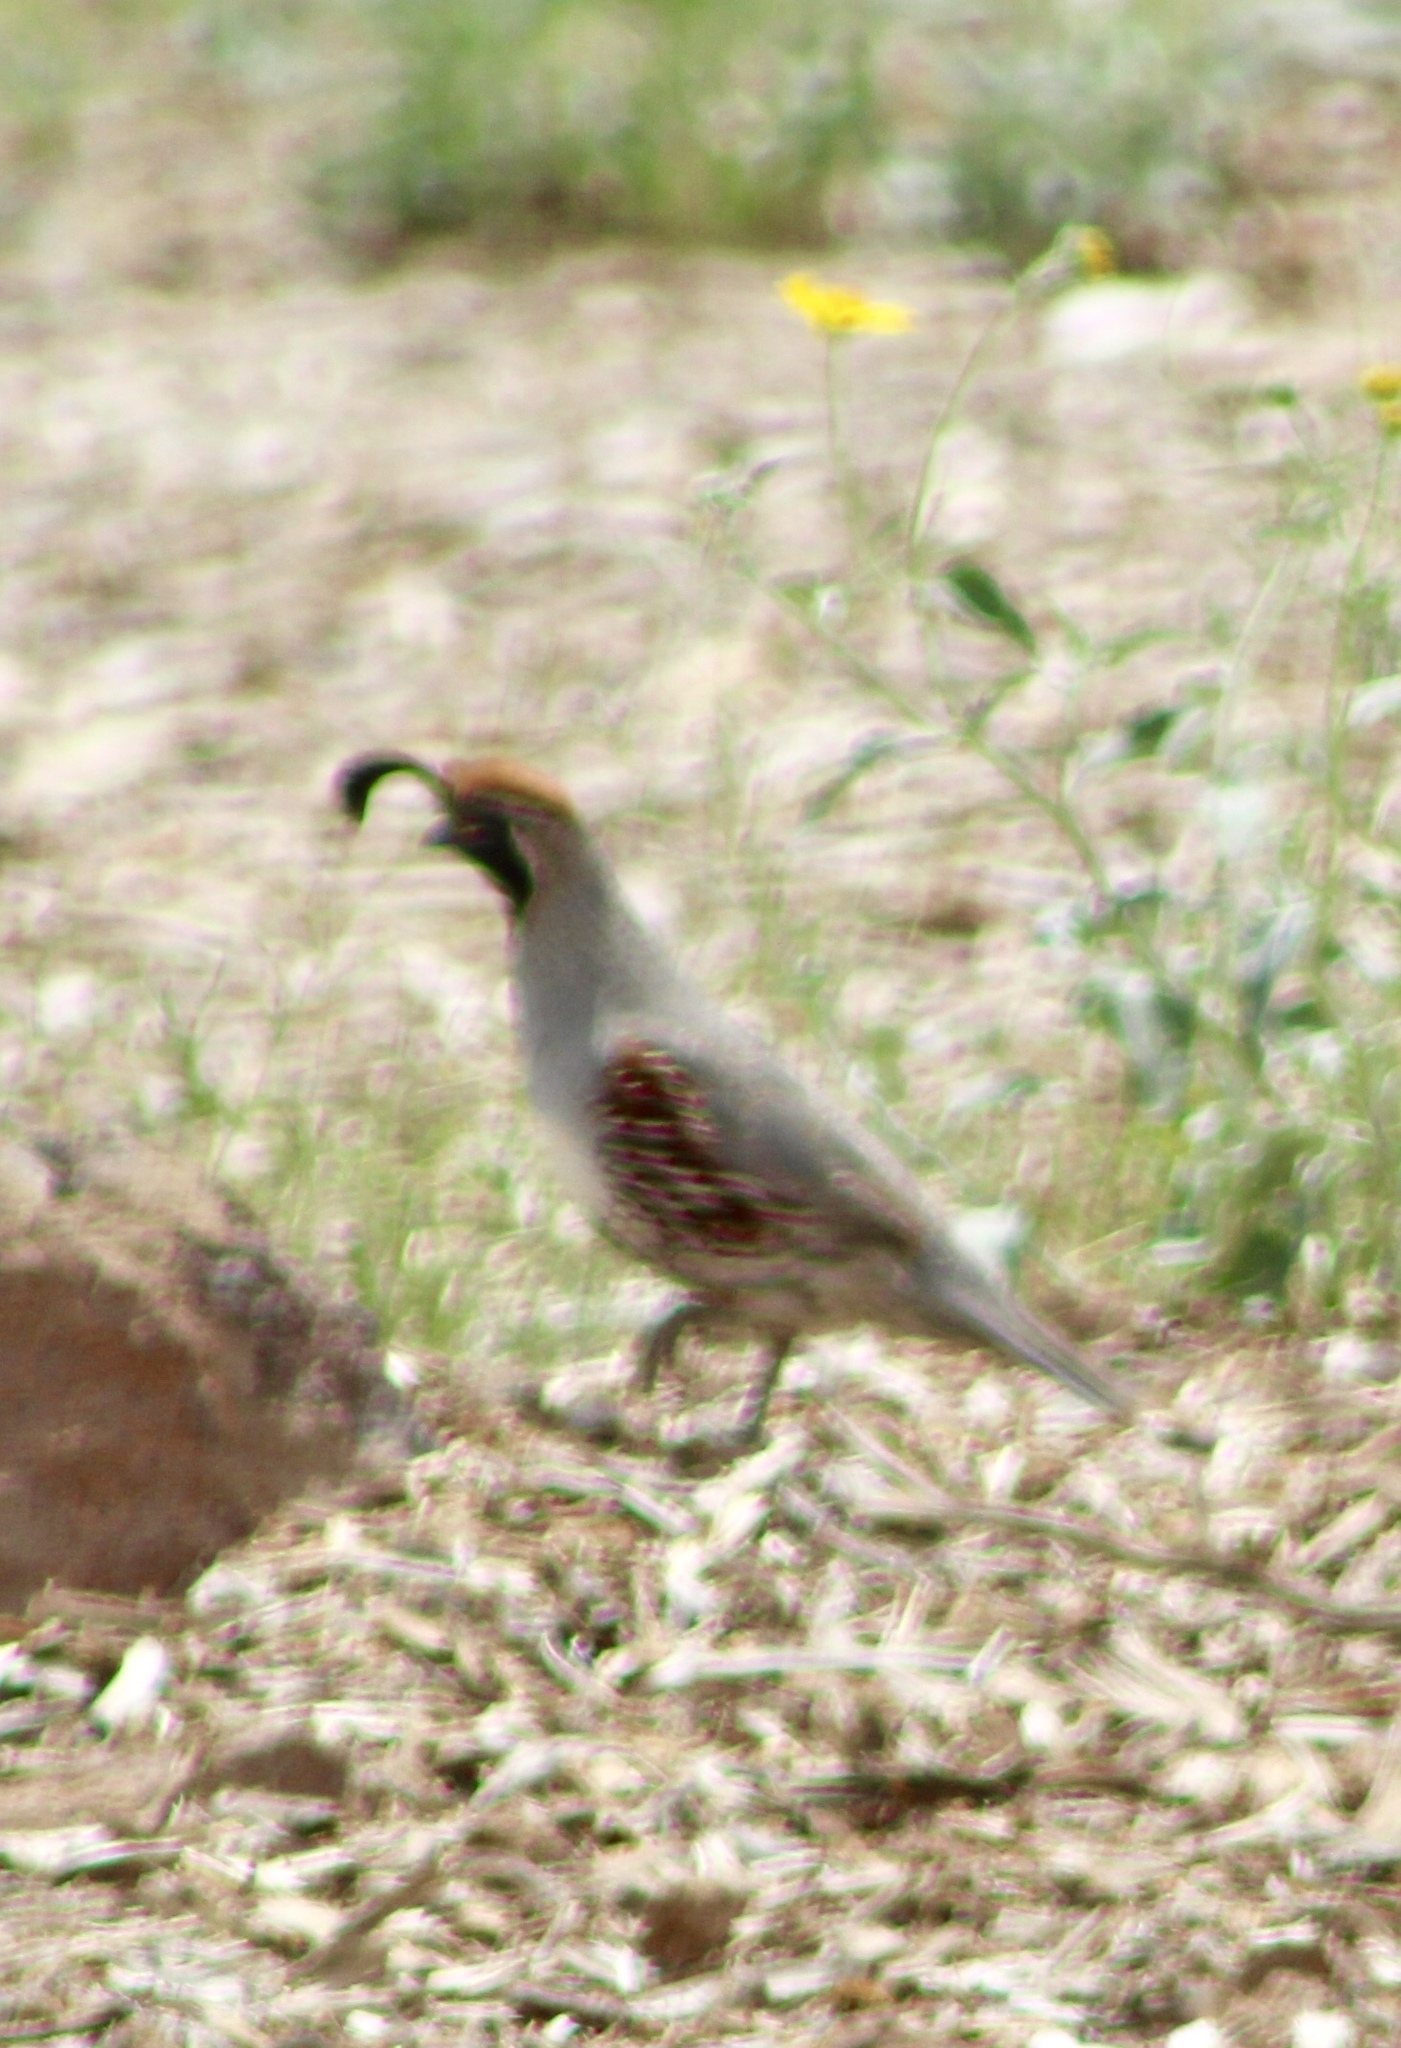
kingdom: Animalia
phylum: Chordata
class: Aves
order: Galliformes
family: Odontophoridae
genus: Callipepla
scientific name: Callipepla gambelii
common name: Gambel's quail
